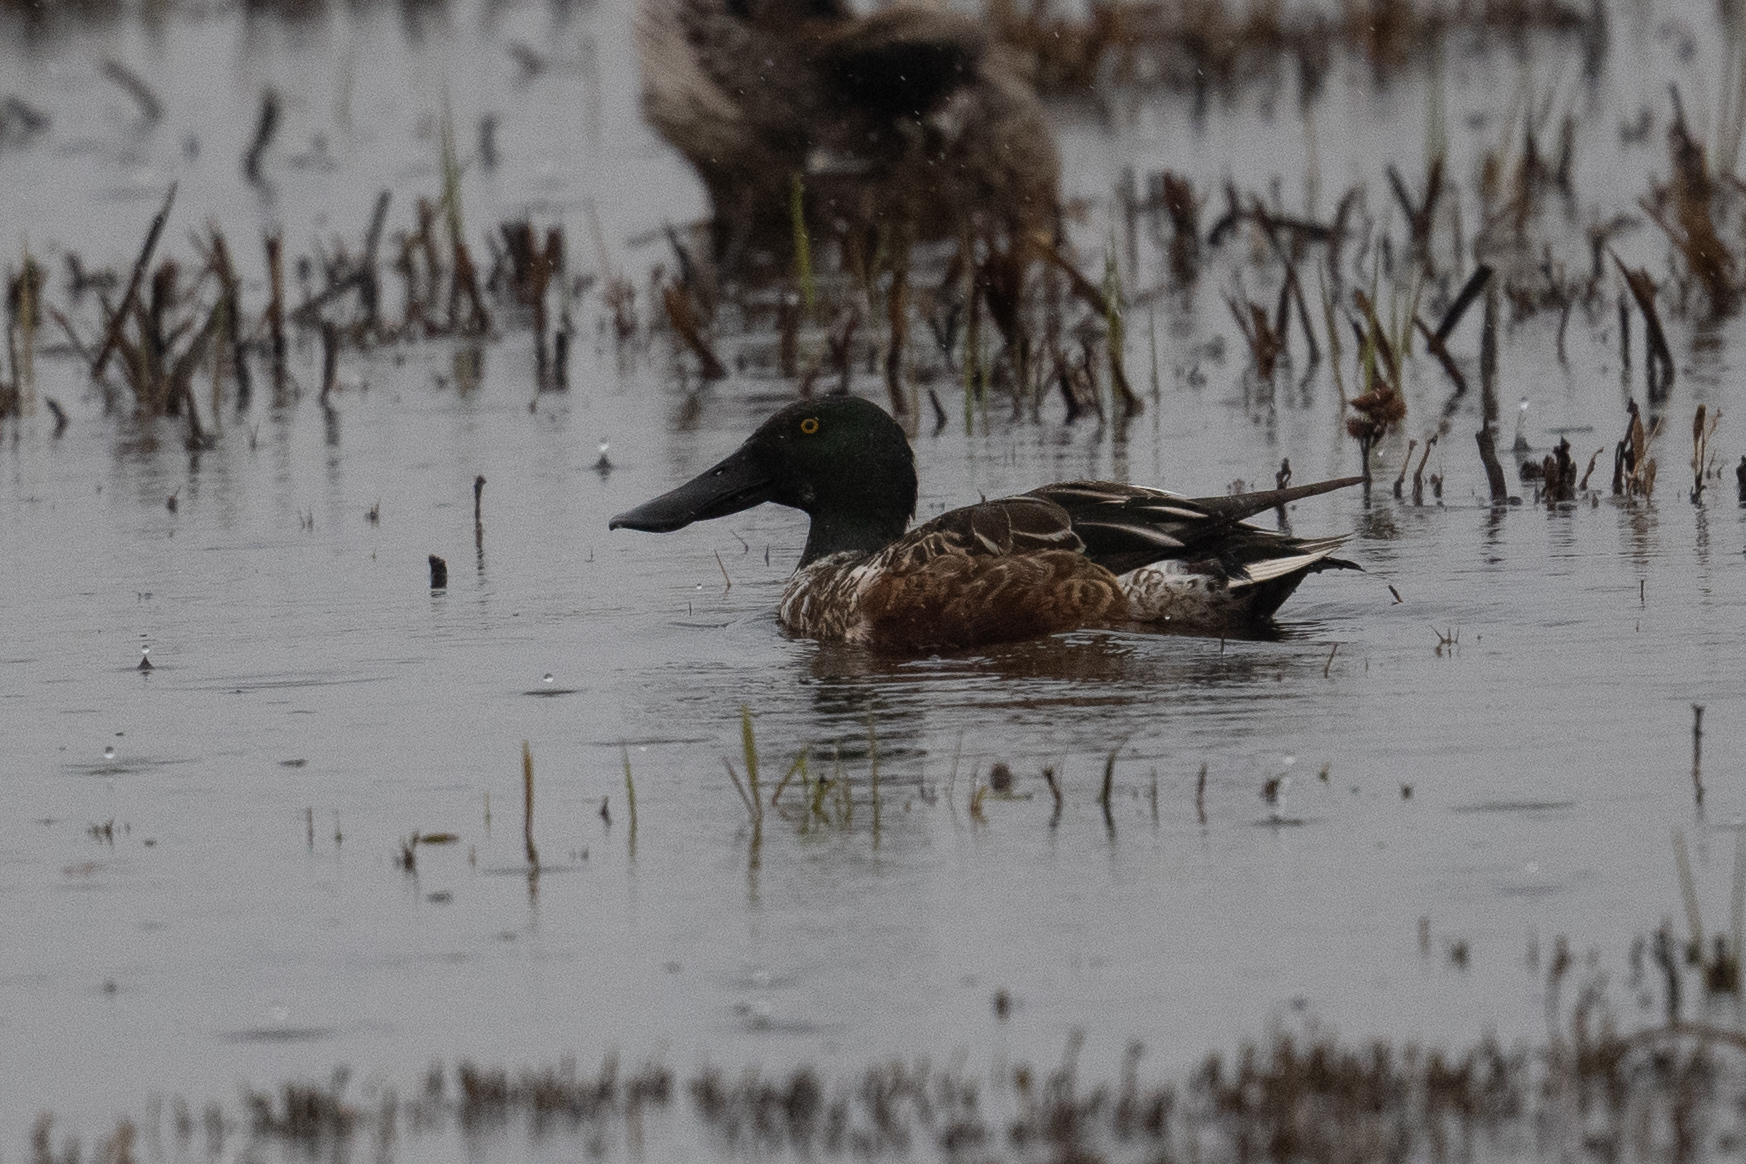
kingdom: Animalia
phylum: Chordata
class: Aves
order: Anseriformes
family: Anatidae
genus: Spatula
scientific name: Spatula clypeata
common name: Northern shoveler
